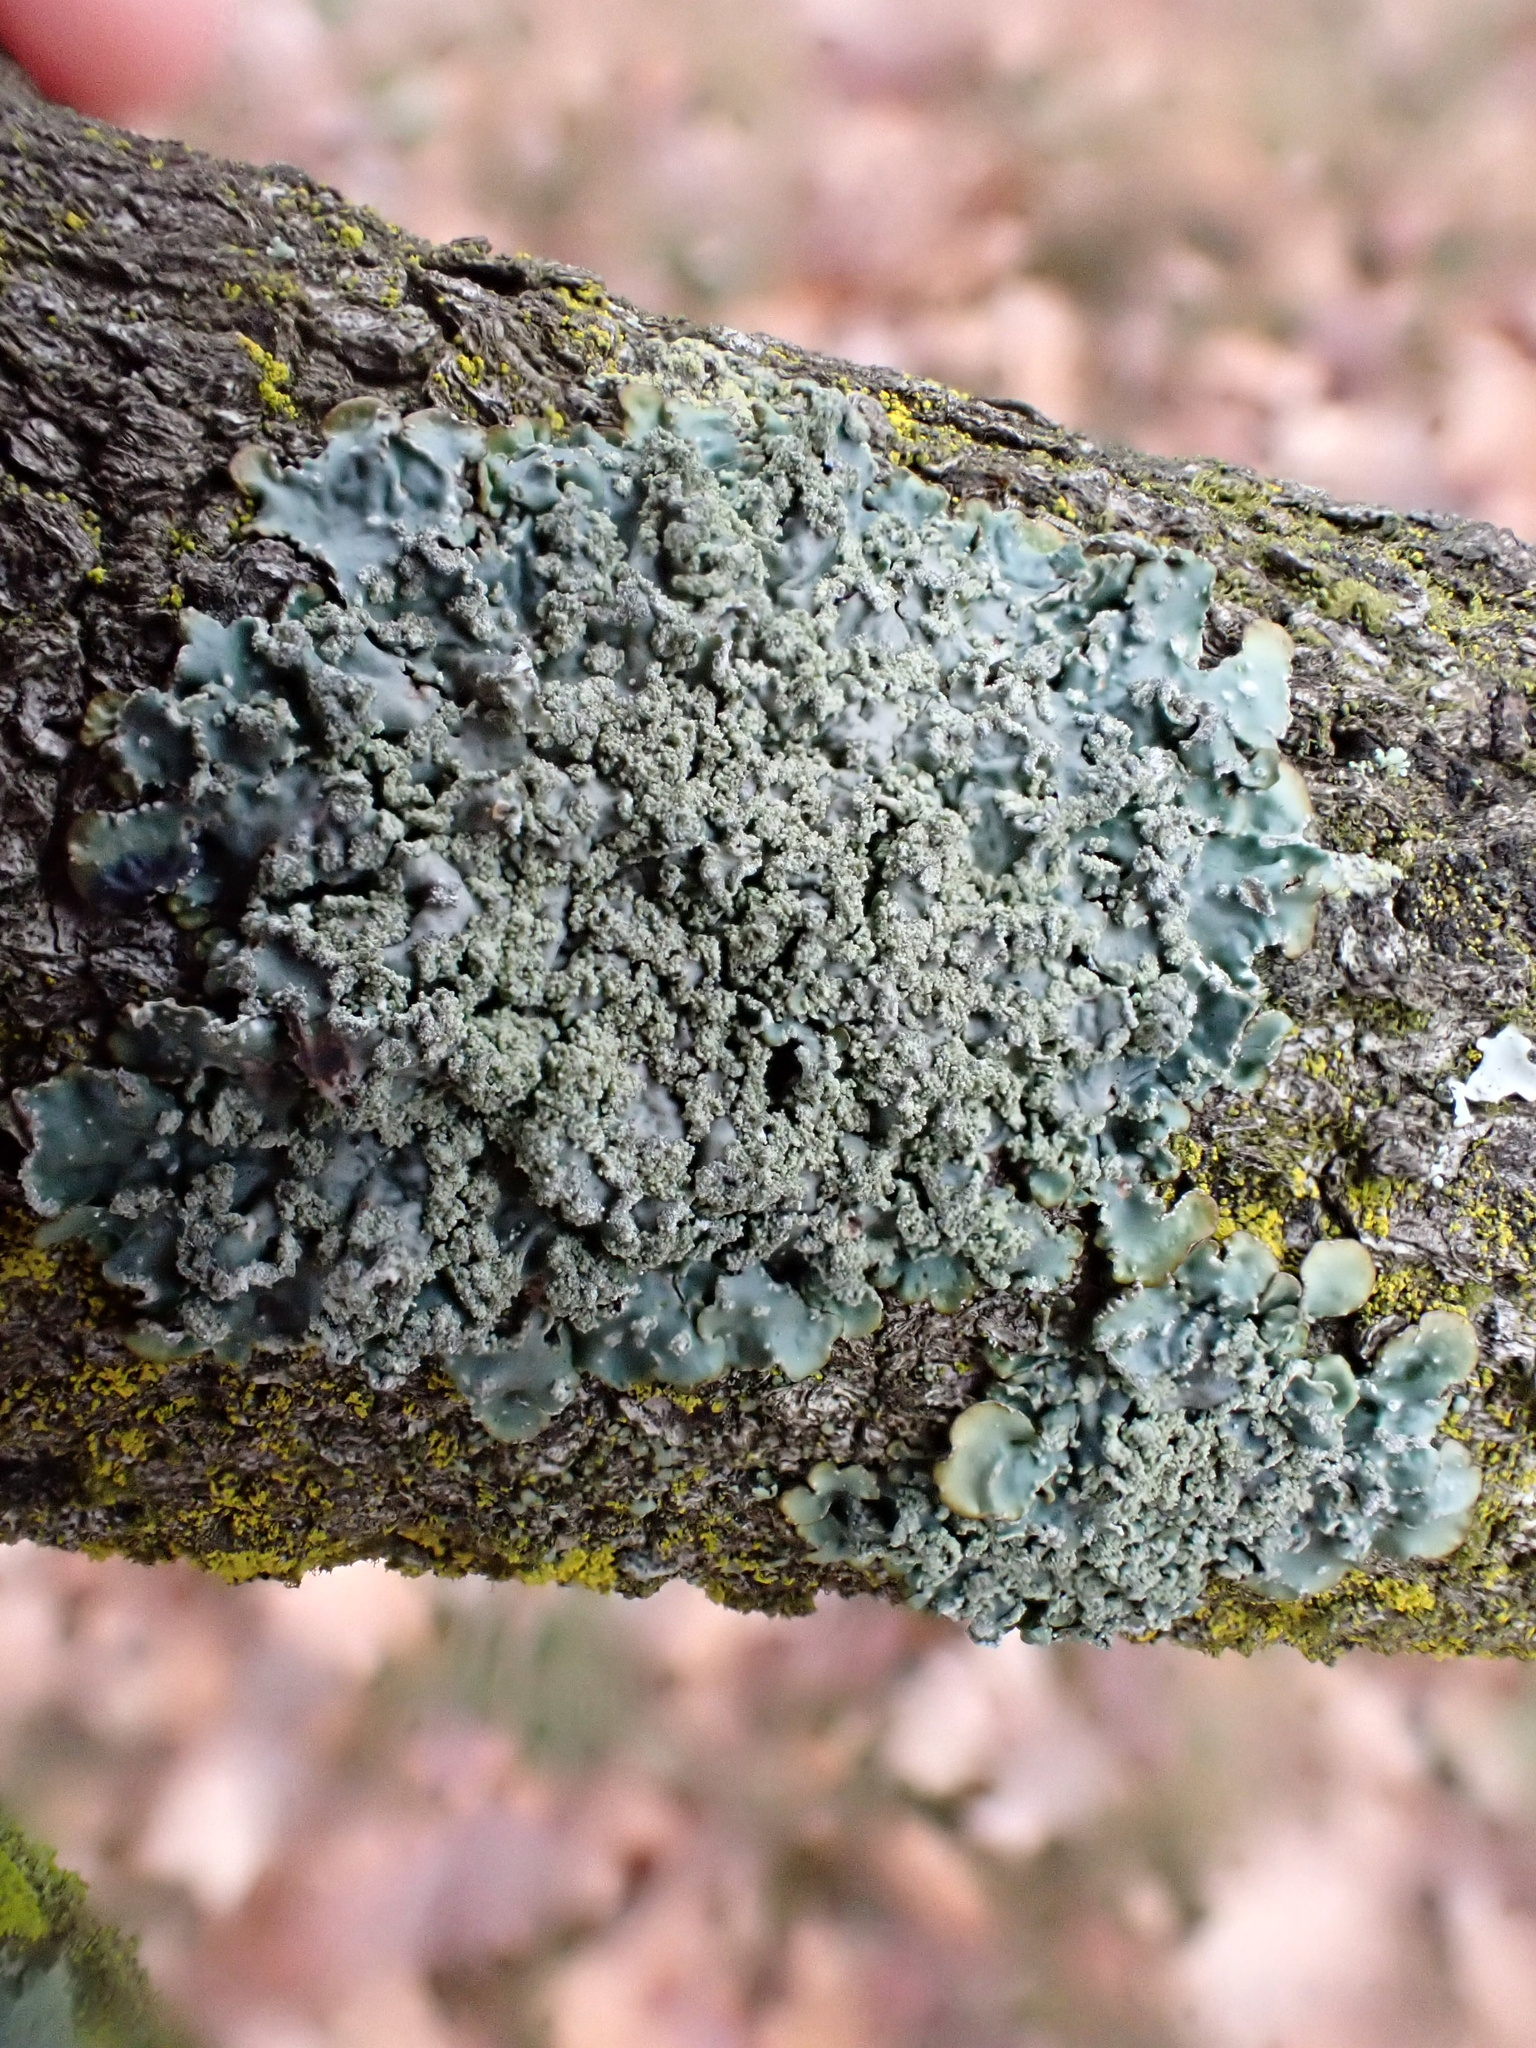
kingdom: Fungi
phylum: Ascomycota
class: Lecanoromycetes
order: Lecanorales
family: Parmeliaceae
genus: Punctelia
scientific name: Punctelia jeckeri
